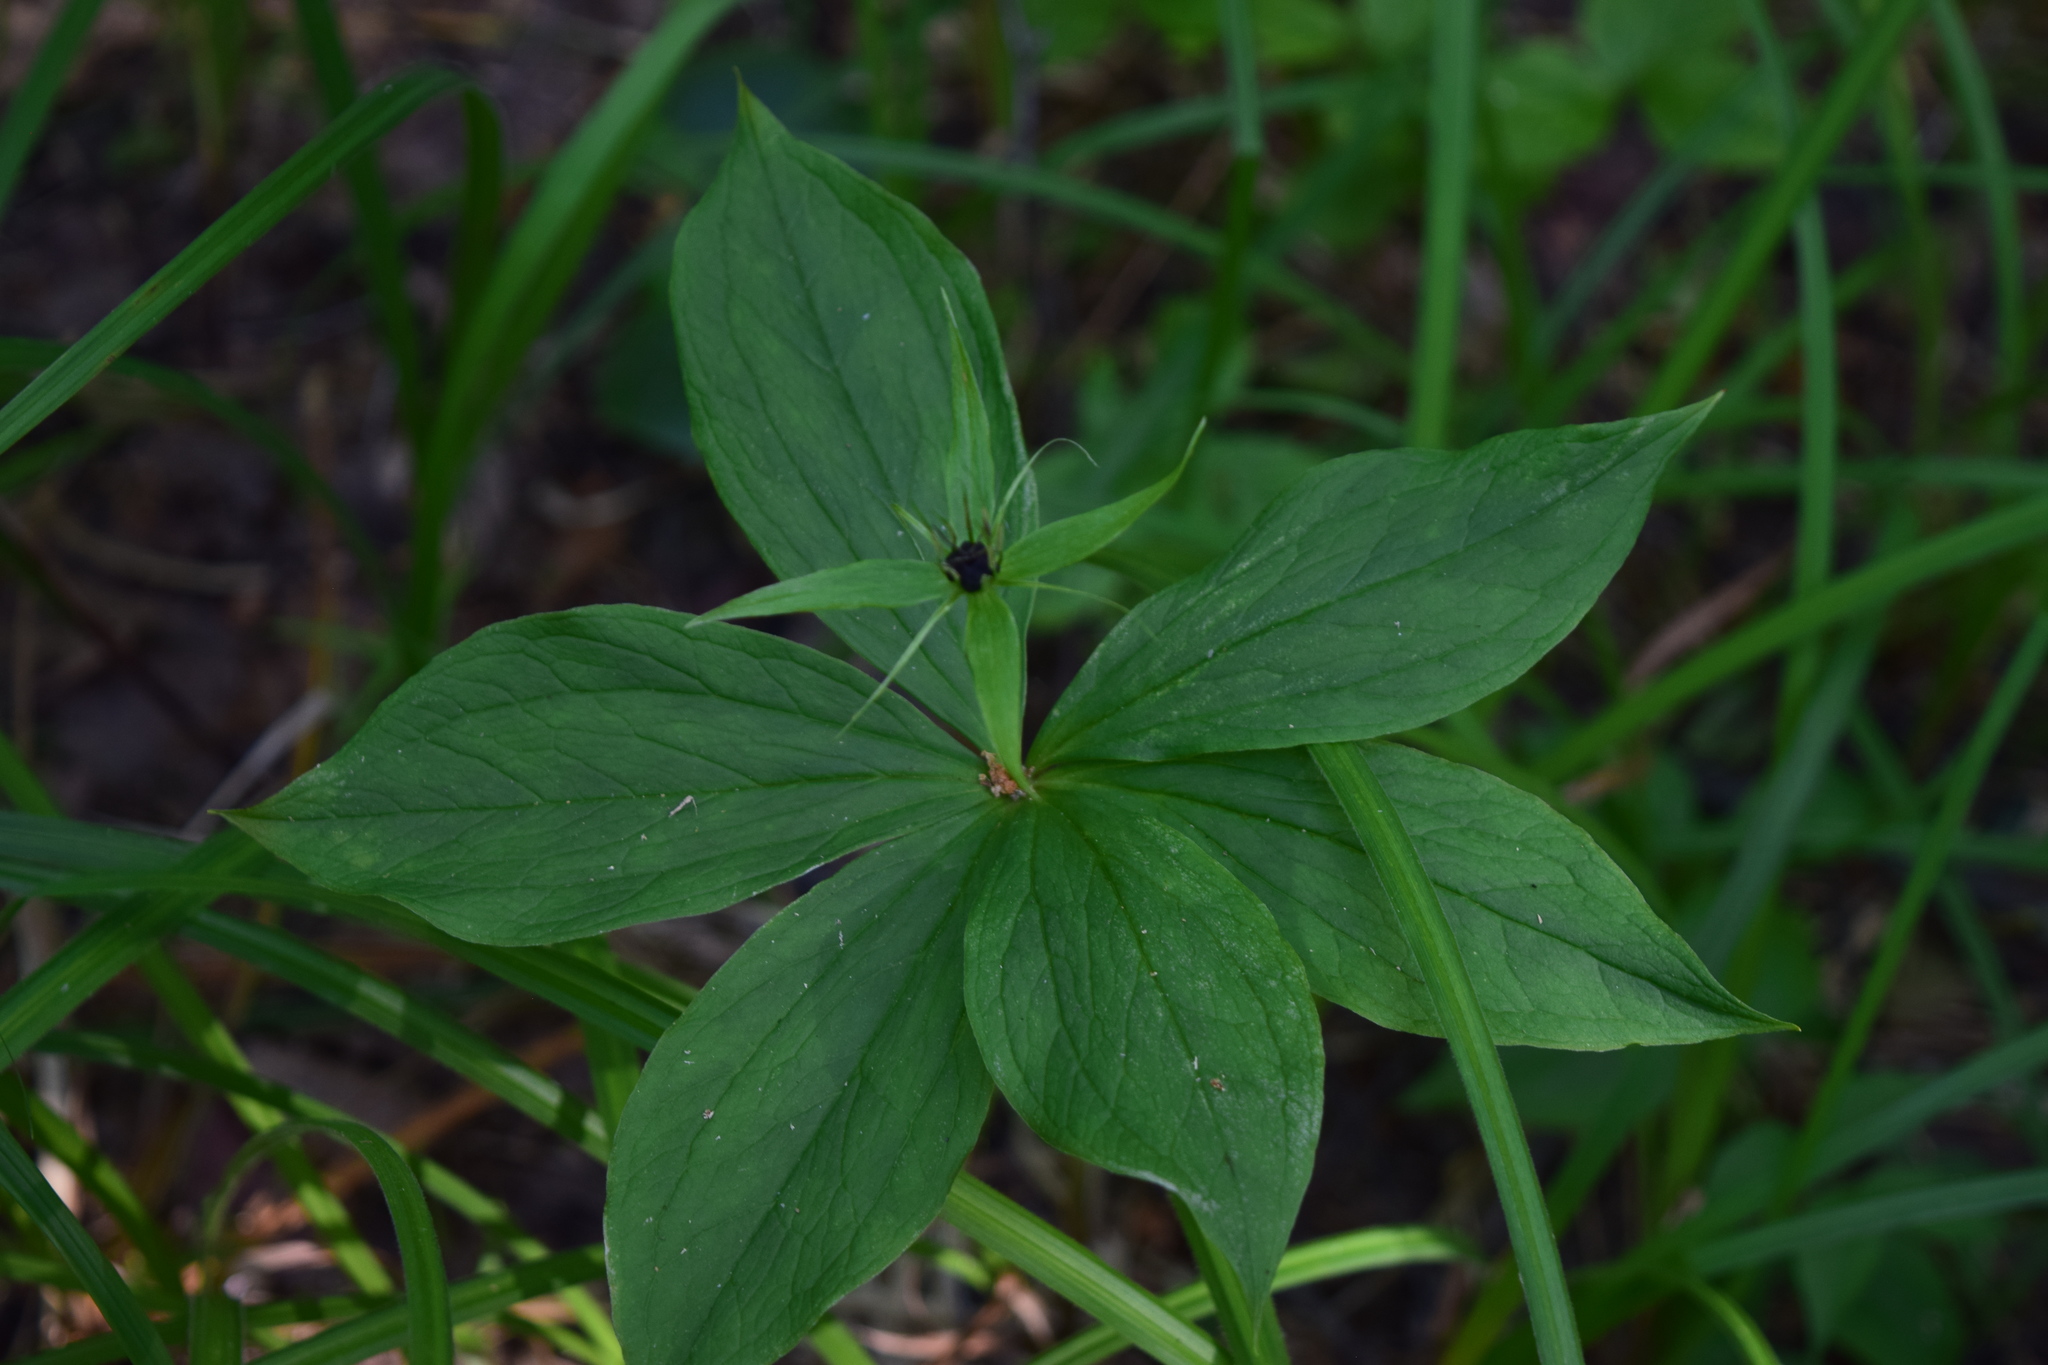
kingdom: Plantae
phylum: Tracheophyta
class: Liliopsida
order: Liliales
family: Melanthiaceae
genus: Paris
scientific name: Paris quadrifolia
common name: Herb-paris
